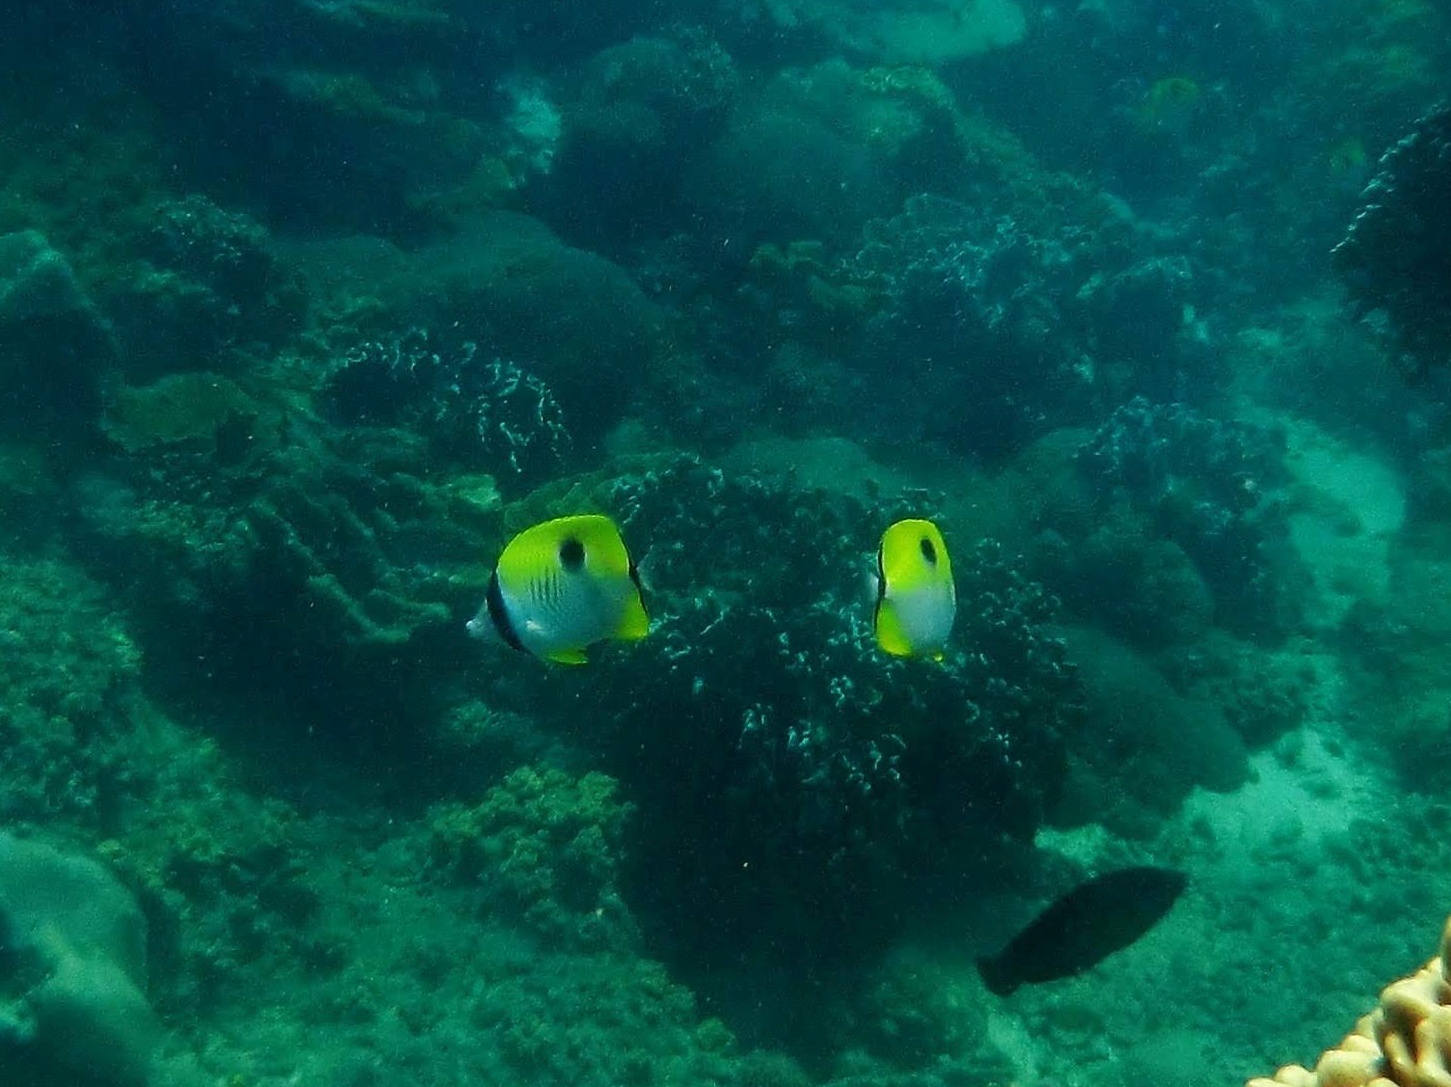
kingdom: Animalia
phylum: Chordata
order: Perciformes
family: Chaetodontidae
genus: Chaetodon
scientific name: Chaetodon unimaculatus
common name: Teardrop butterflyfish
